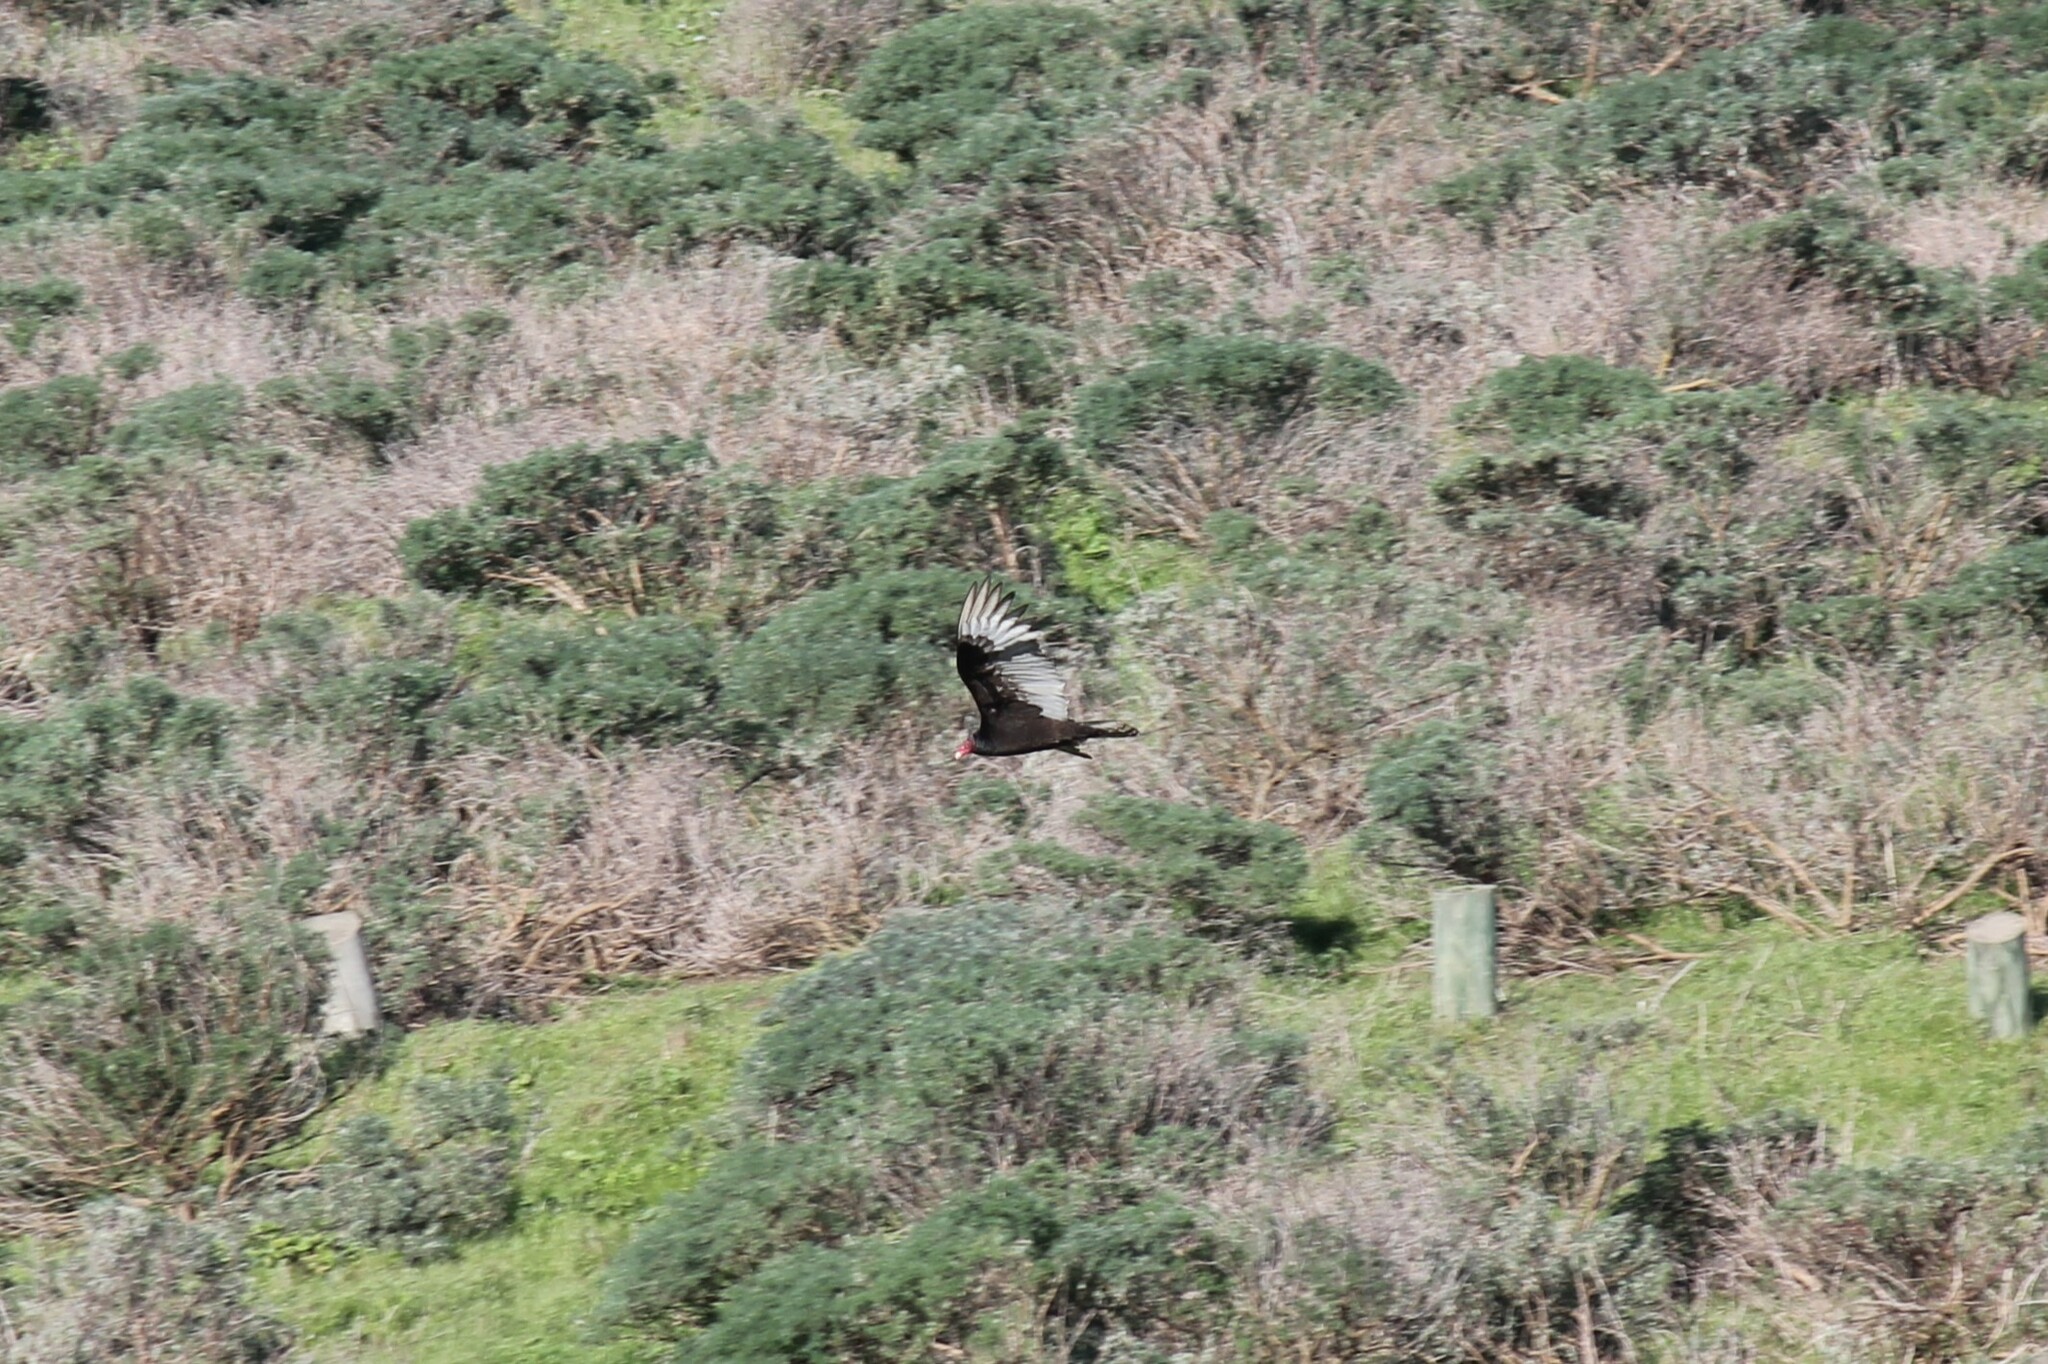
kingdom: Animalia
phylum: Chordata
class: Aves
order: Accipitriformes
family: Cathartidae
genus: Cathartes
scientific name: Cathartes aura
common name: Turkey vulture
